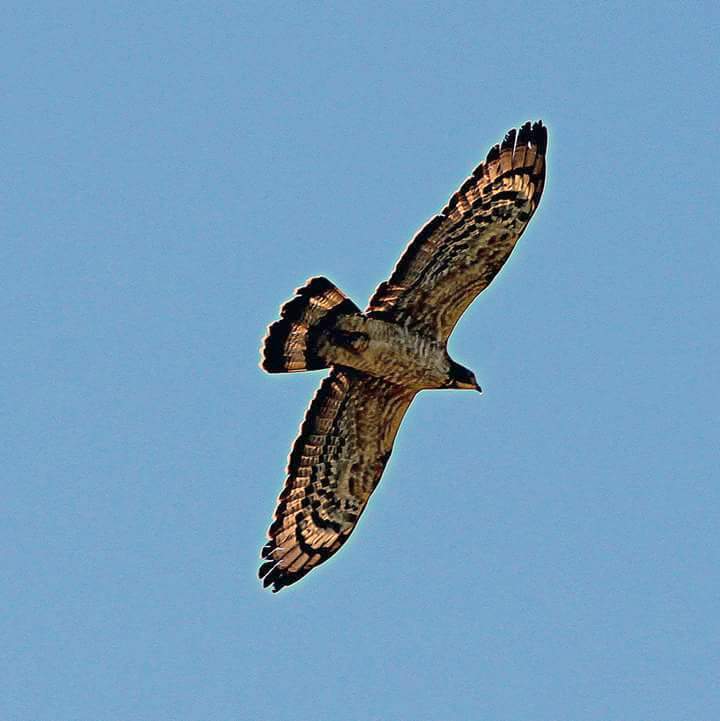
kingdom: Animalia
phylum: Chordata
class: Aves
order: Accipitriformes
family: Accipitridae
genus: Pernis
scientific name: Pernis ptilorhynchus
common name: Crested honey buzzard
